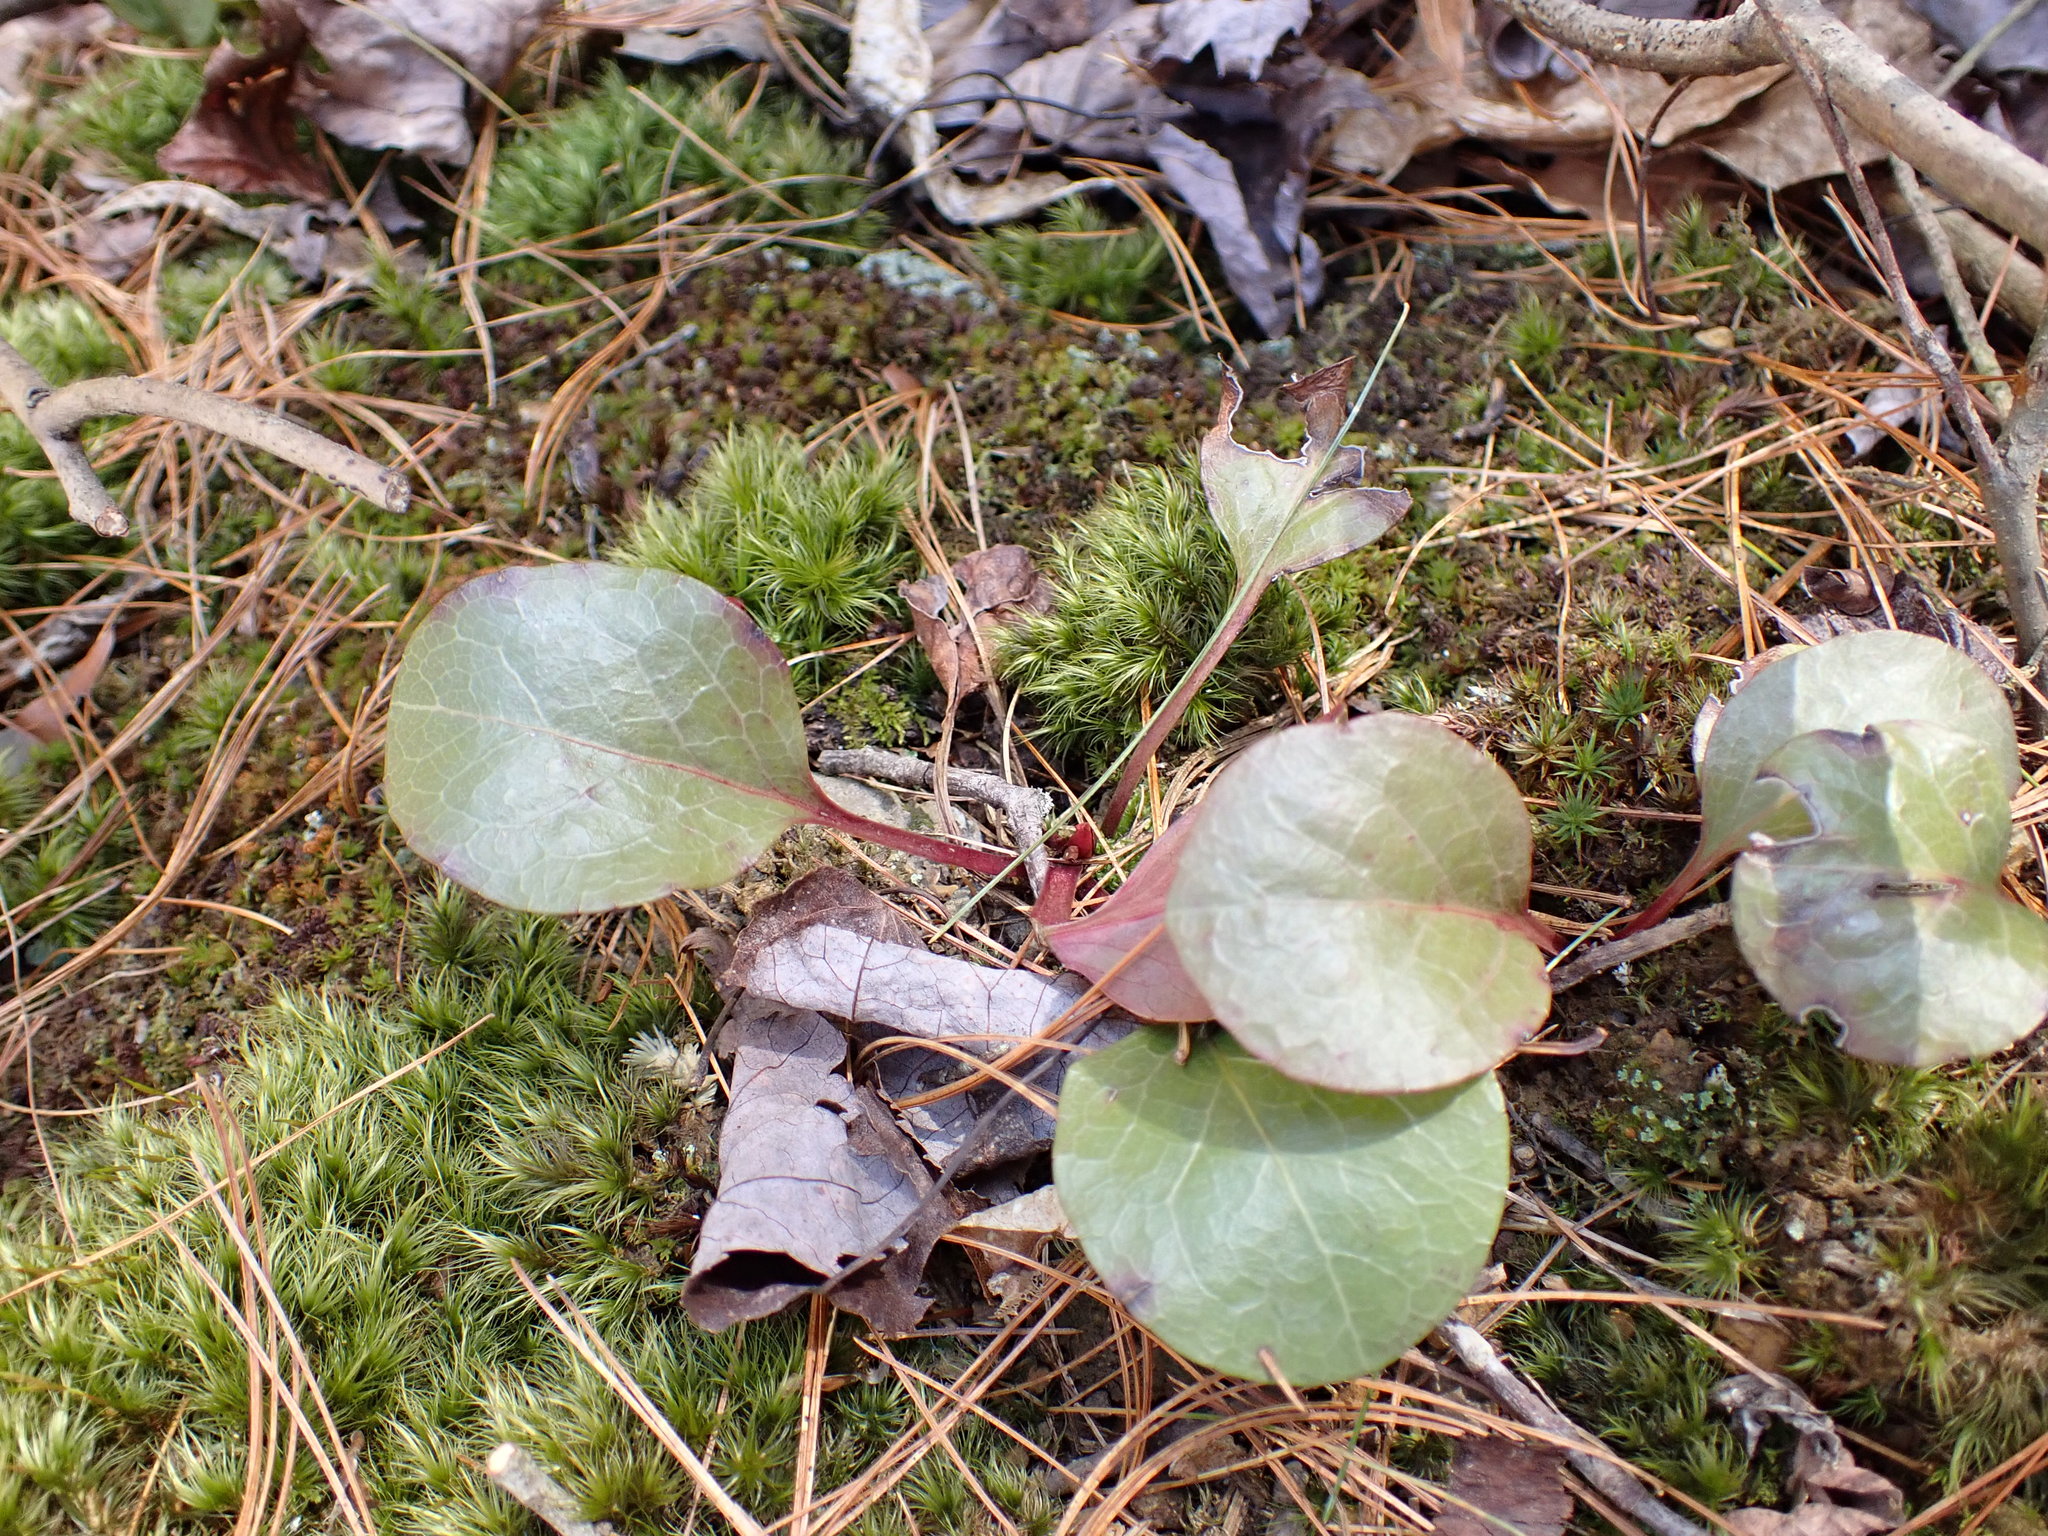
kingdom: Plantae
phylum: Tracheophyta
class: Magnoliopsida
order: Ericales
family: Ericaceae
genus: Pyrola
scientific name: Pyrola americana
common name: American wintergreen
